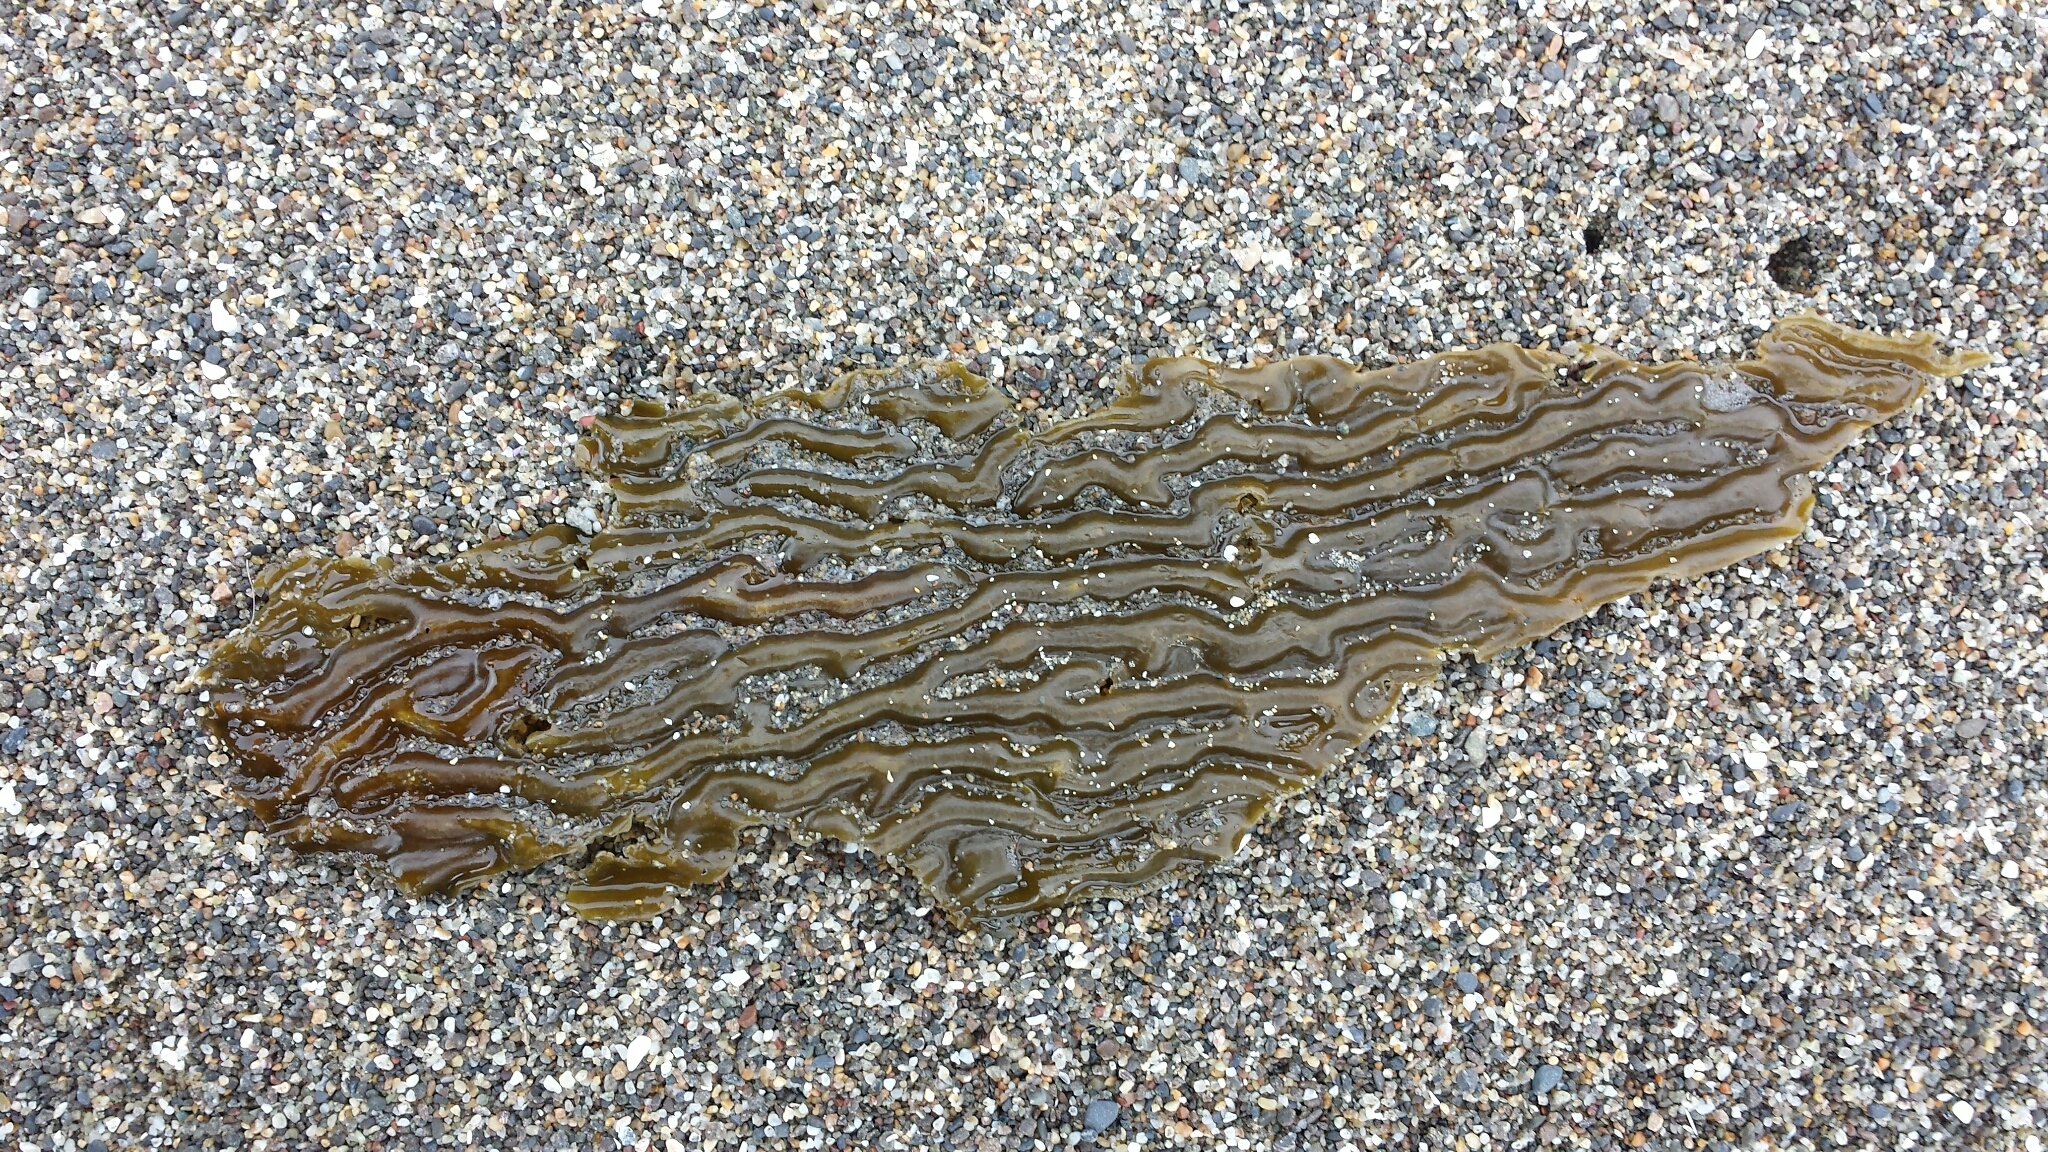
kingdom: Chromista
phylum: Ochrophyta
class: Phaeophyceae
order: Laminariales
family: Laminariaceae
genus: Macrocystis
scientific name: Macrocystis pyrifera
